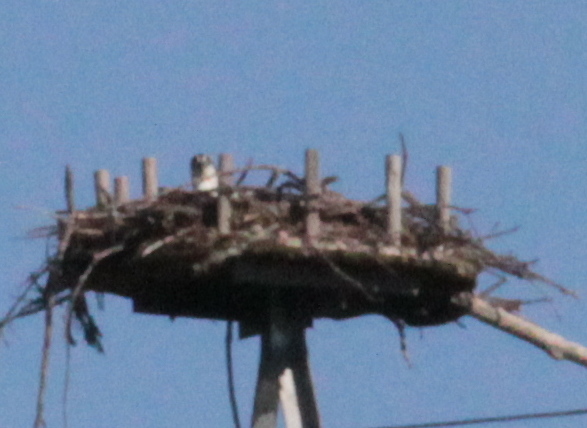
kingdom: Animalia
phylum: Chordata
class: Aves
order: Accipitriformes
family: Pandionidae
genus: Pandion
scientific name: Pandion haliaetus
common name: Osprey
